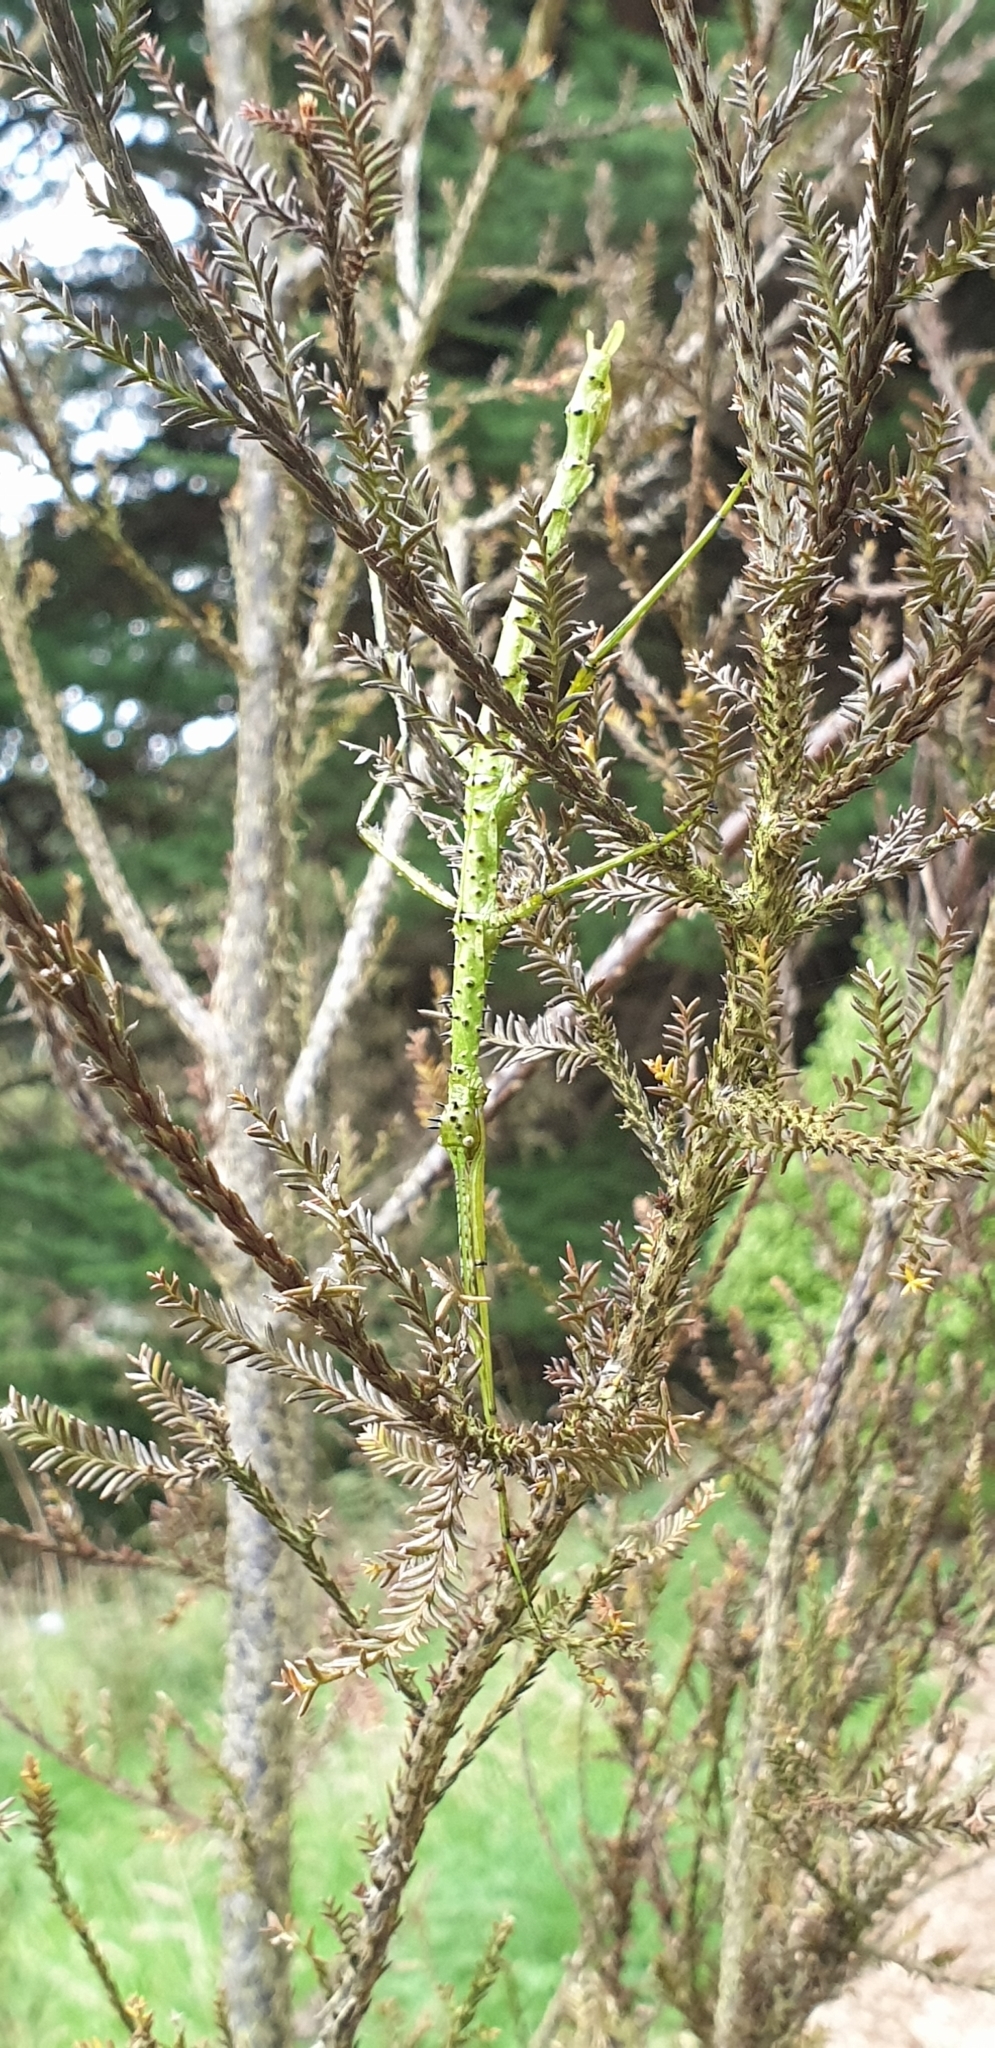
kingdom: Animalia
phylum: Arthropoda
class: Insecta
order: Phasmida
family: Phasmatidae
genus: Acanthoxyla
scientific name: Acanthoxyla prasina
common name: Black-spined stick insect
